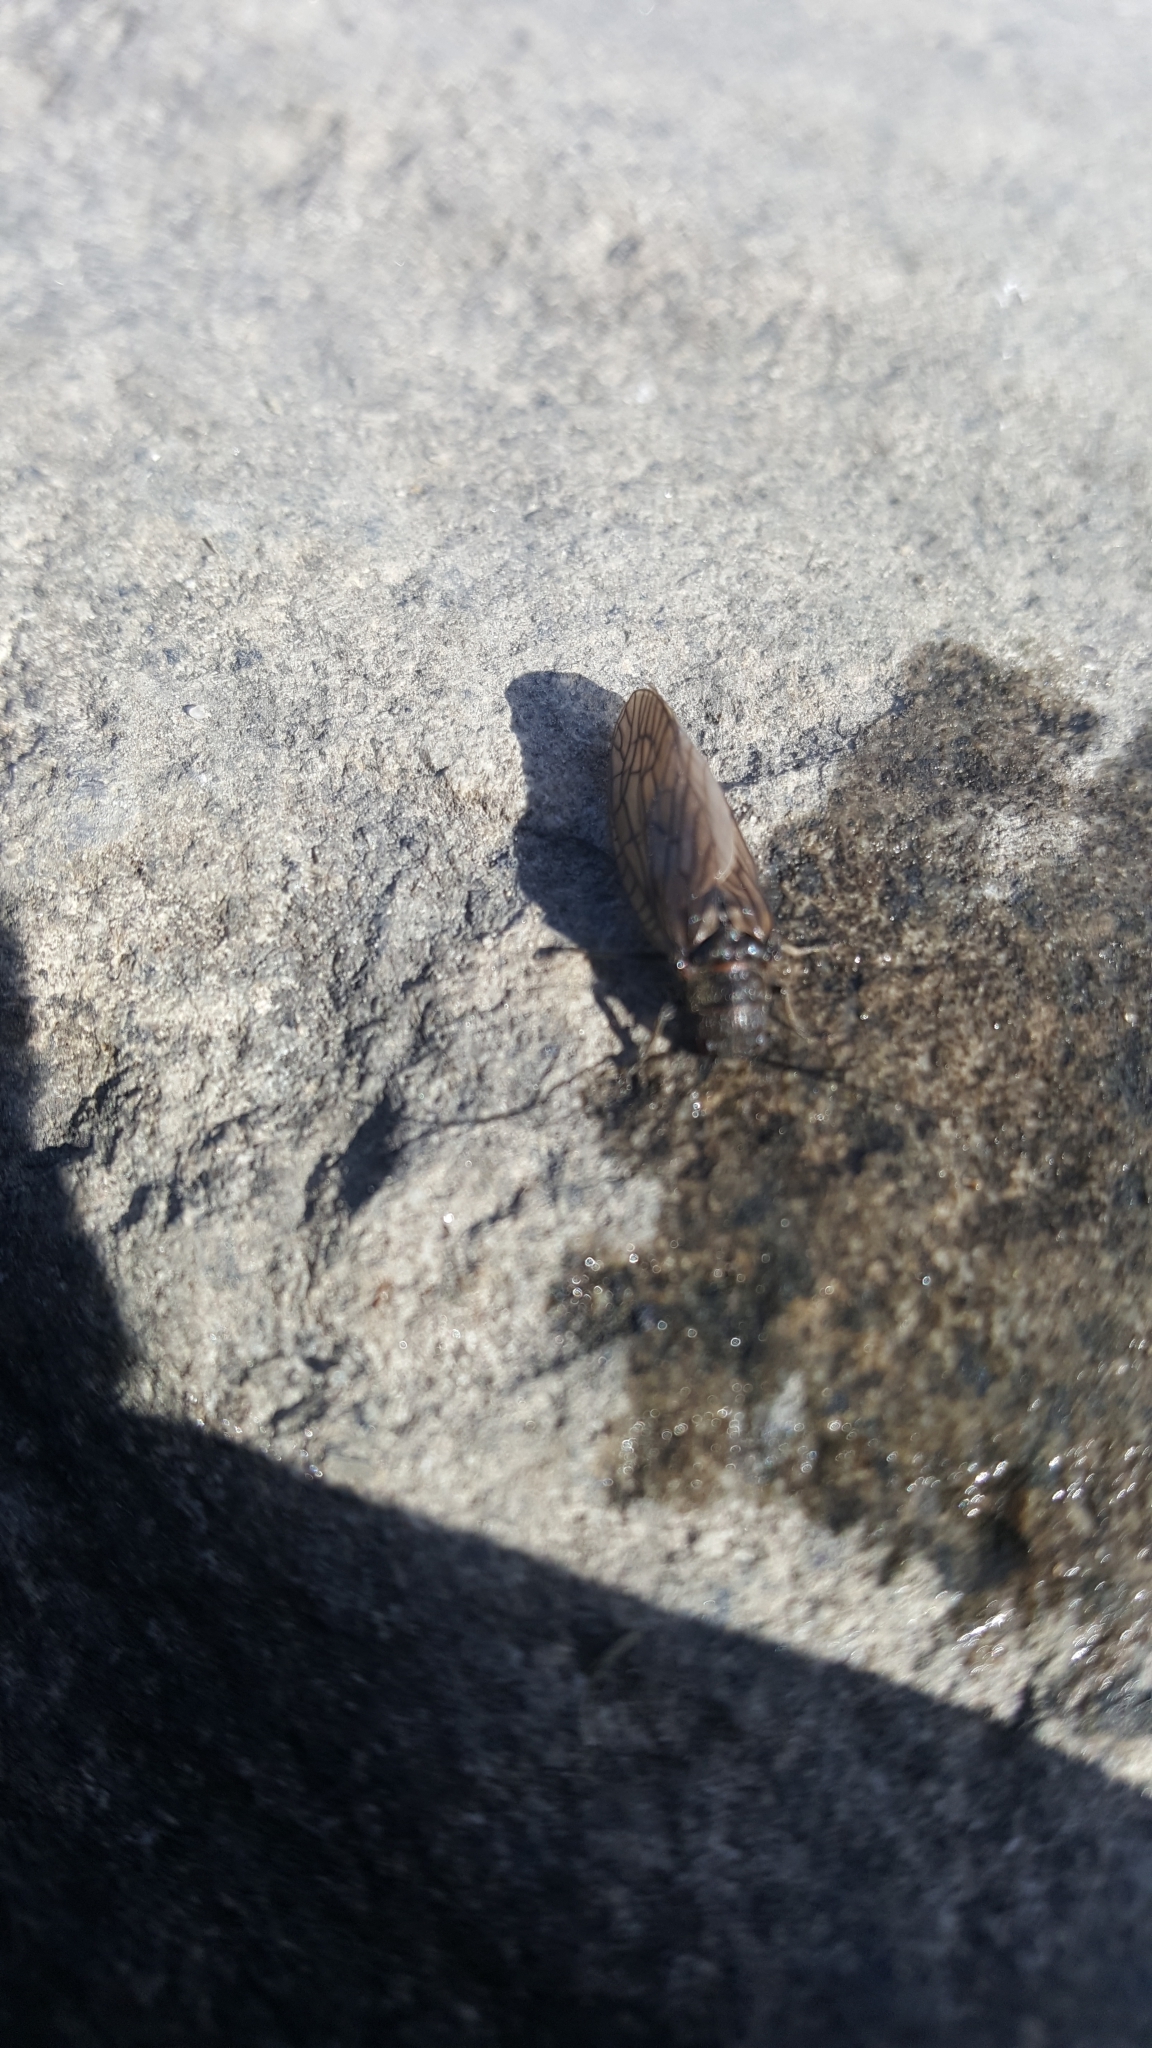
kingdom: Animalia
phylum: Arthropoda
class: Insecta
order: Megaloptera
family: Sialidae
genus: Sialis
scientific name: Sialis
